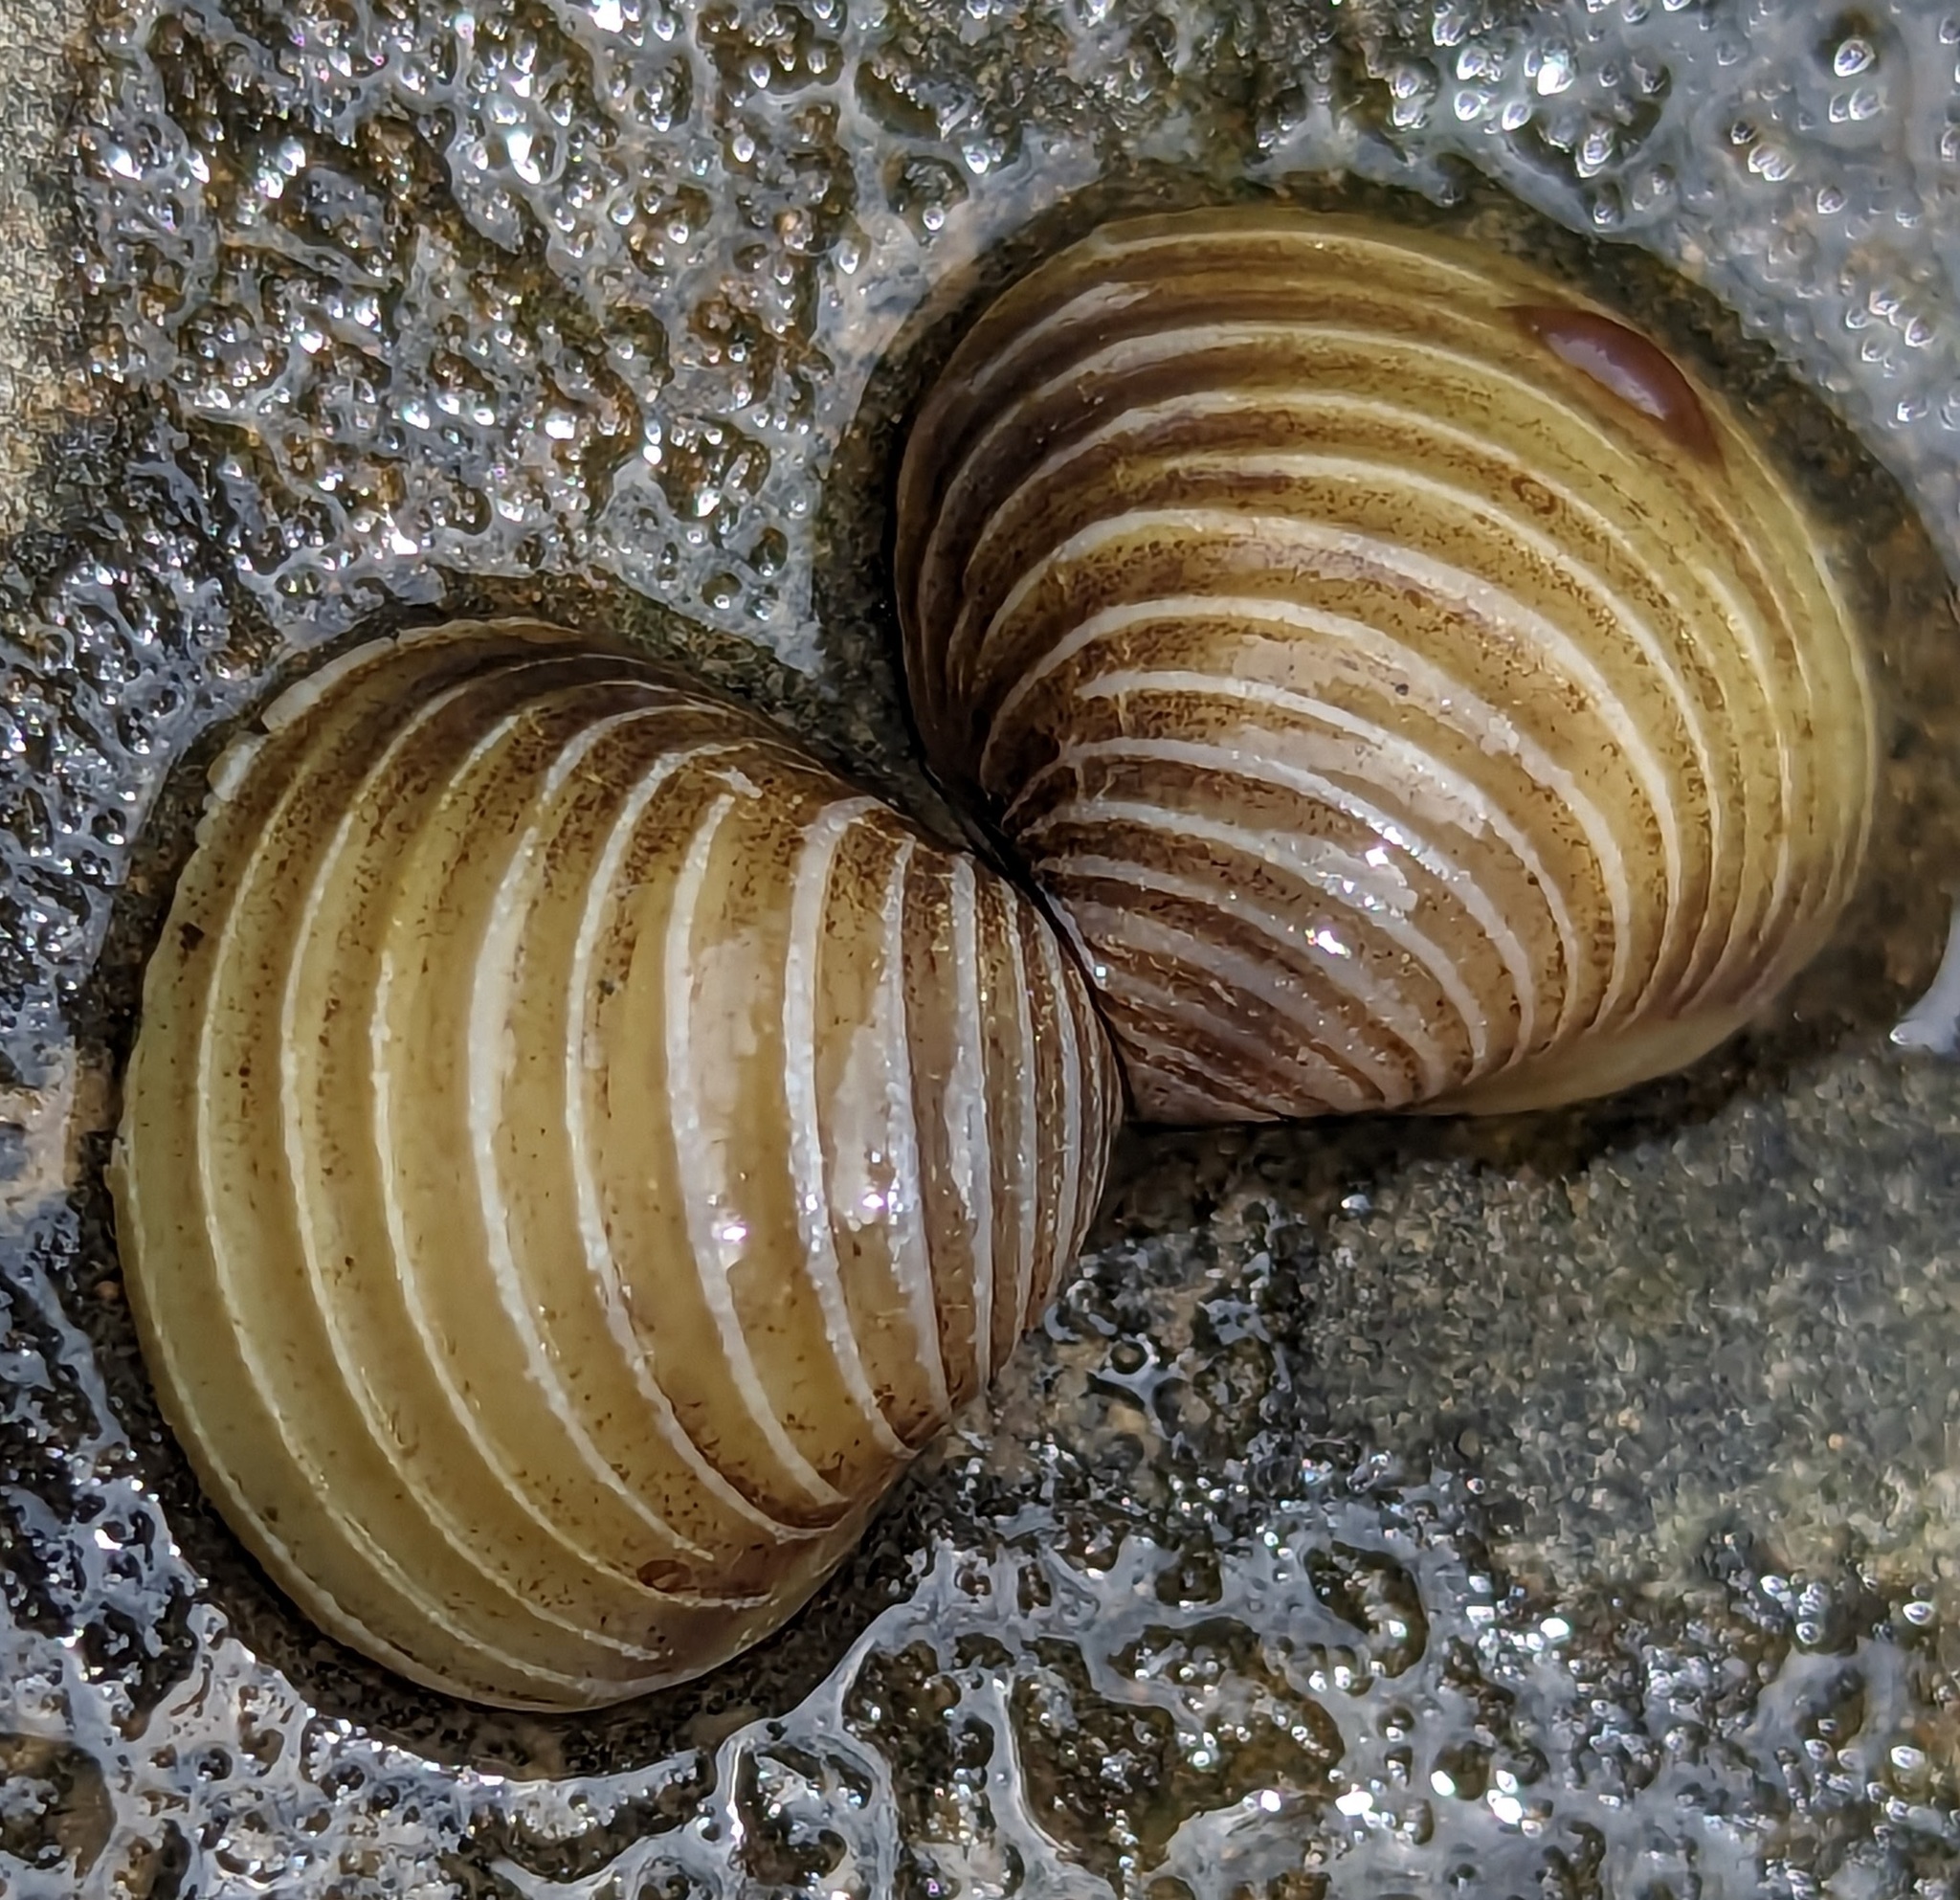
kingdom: Animalia
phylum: Mollusca
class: Bivalvia
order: Venerida
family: Cyrenidae
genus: Corbicula
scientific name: Corbicula fluminea
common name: Asian clam
